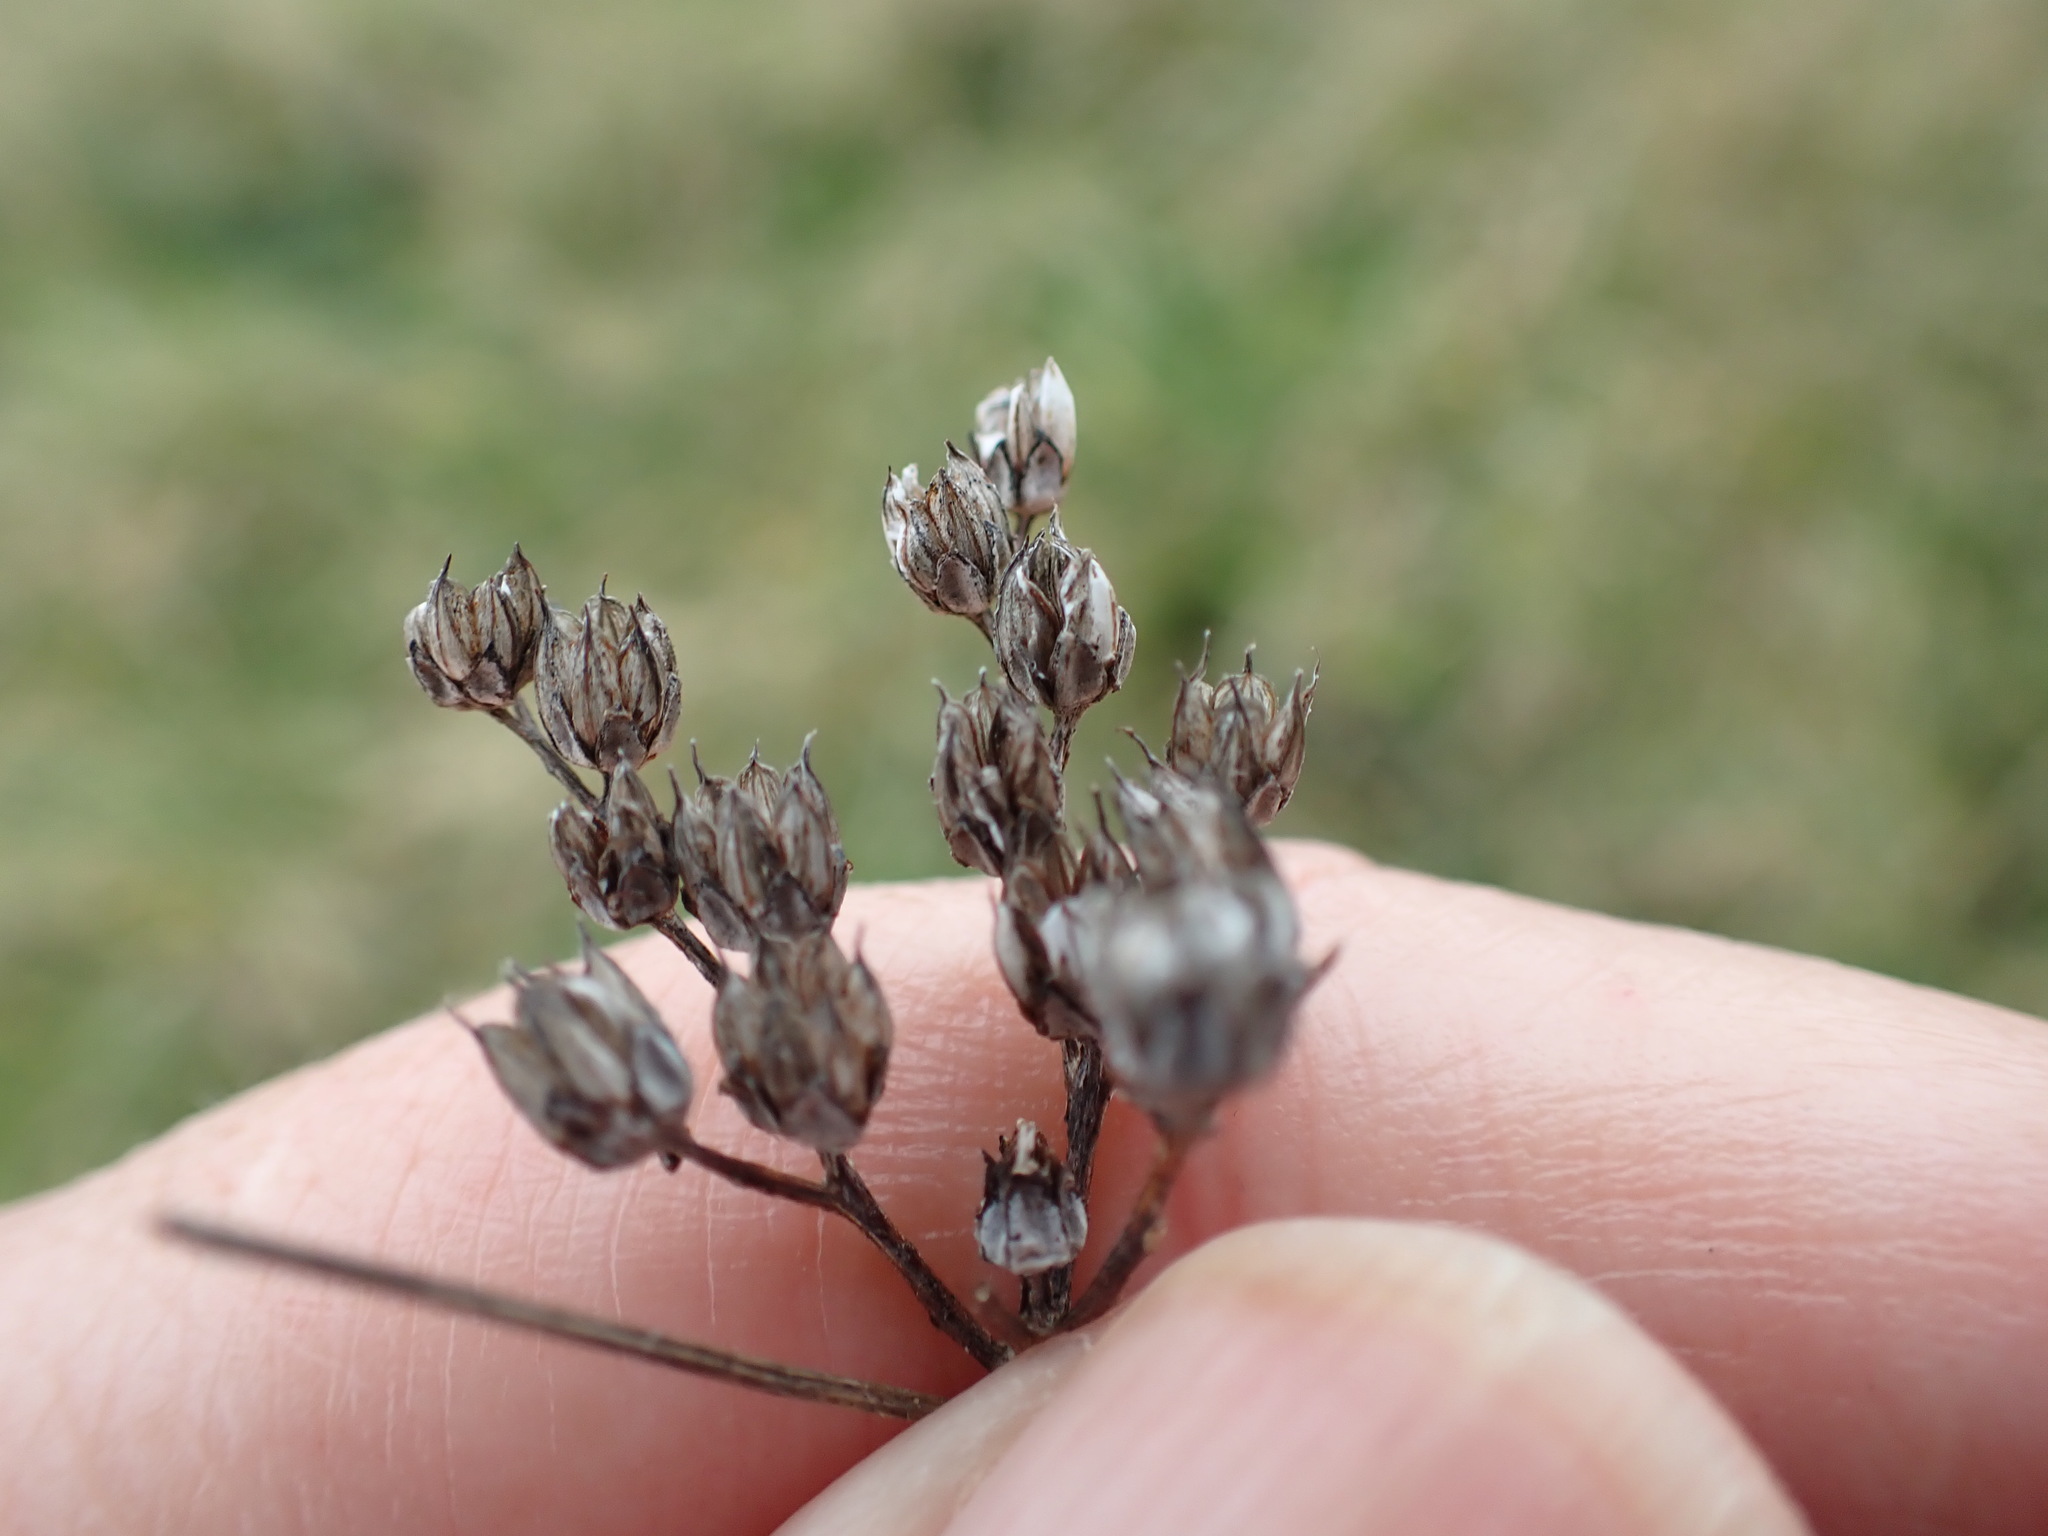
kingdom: Plantae
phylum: Tracheophyta
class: Magnoliopsida
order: Saxifragales
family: Crassulaceae
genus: Petrosedum
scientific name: Petrosedum rupestre
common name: Jenny's stonecrop
